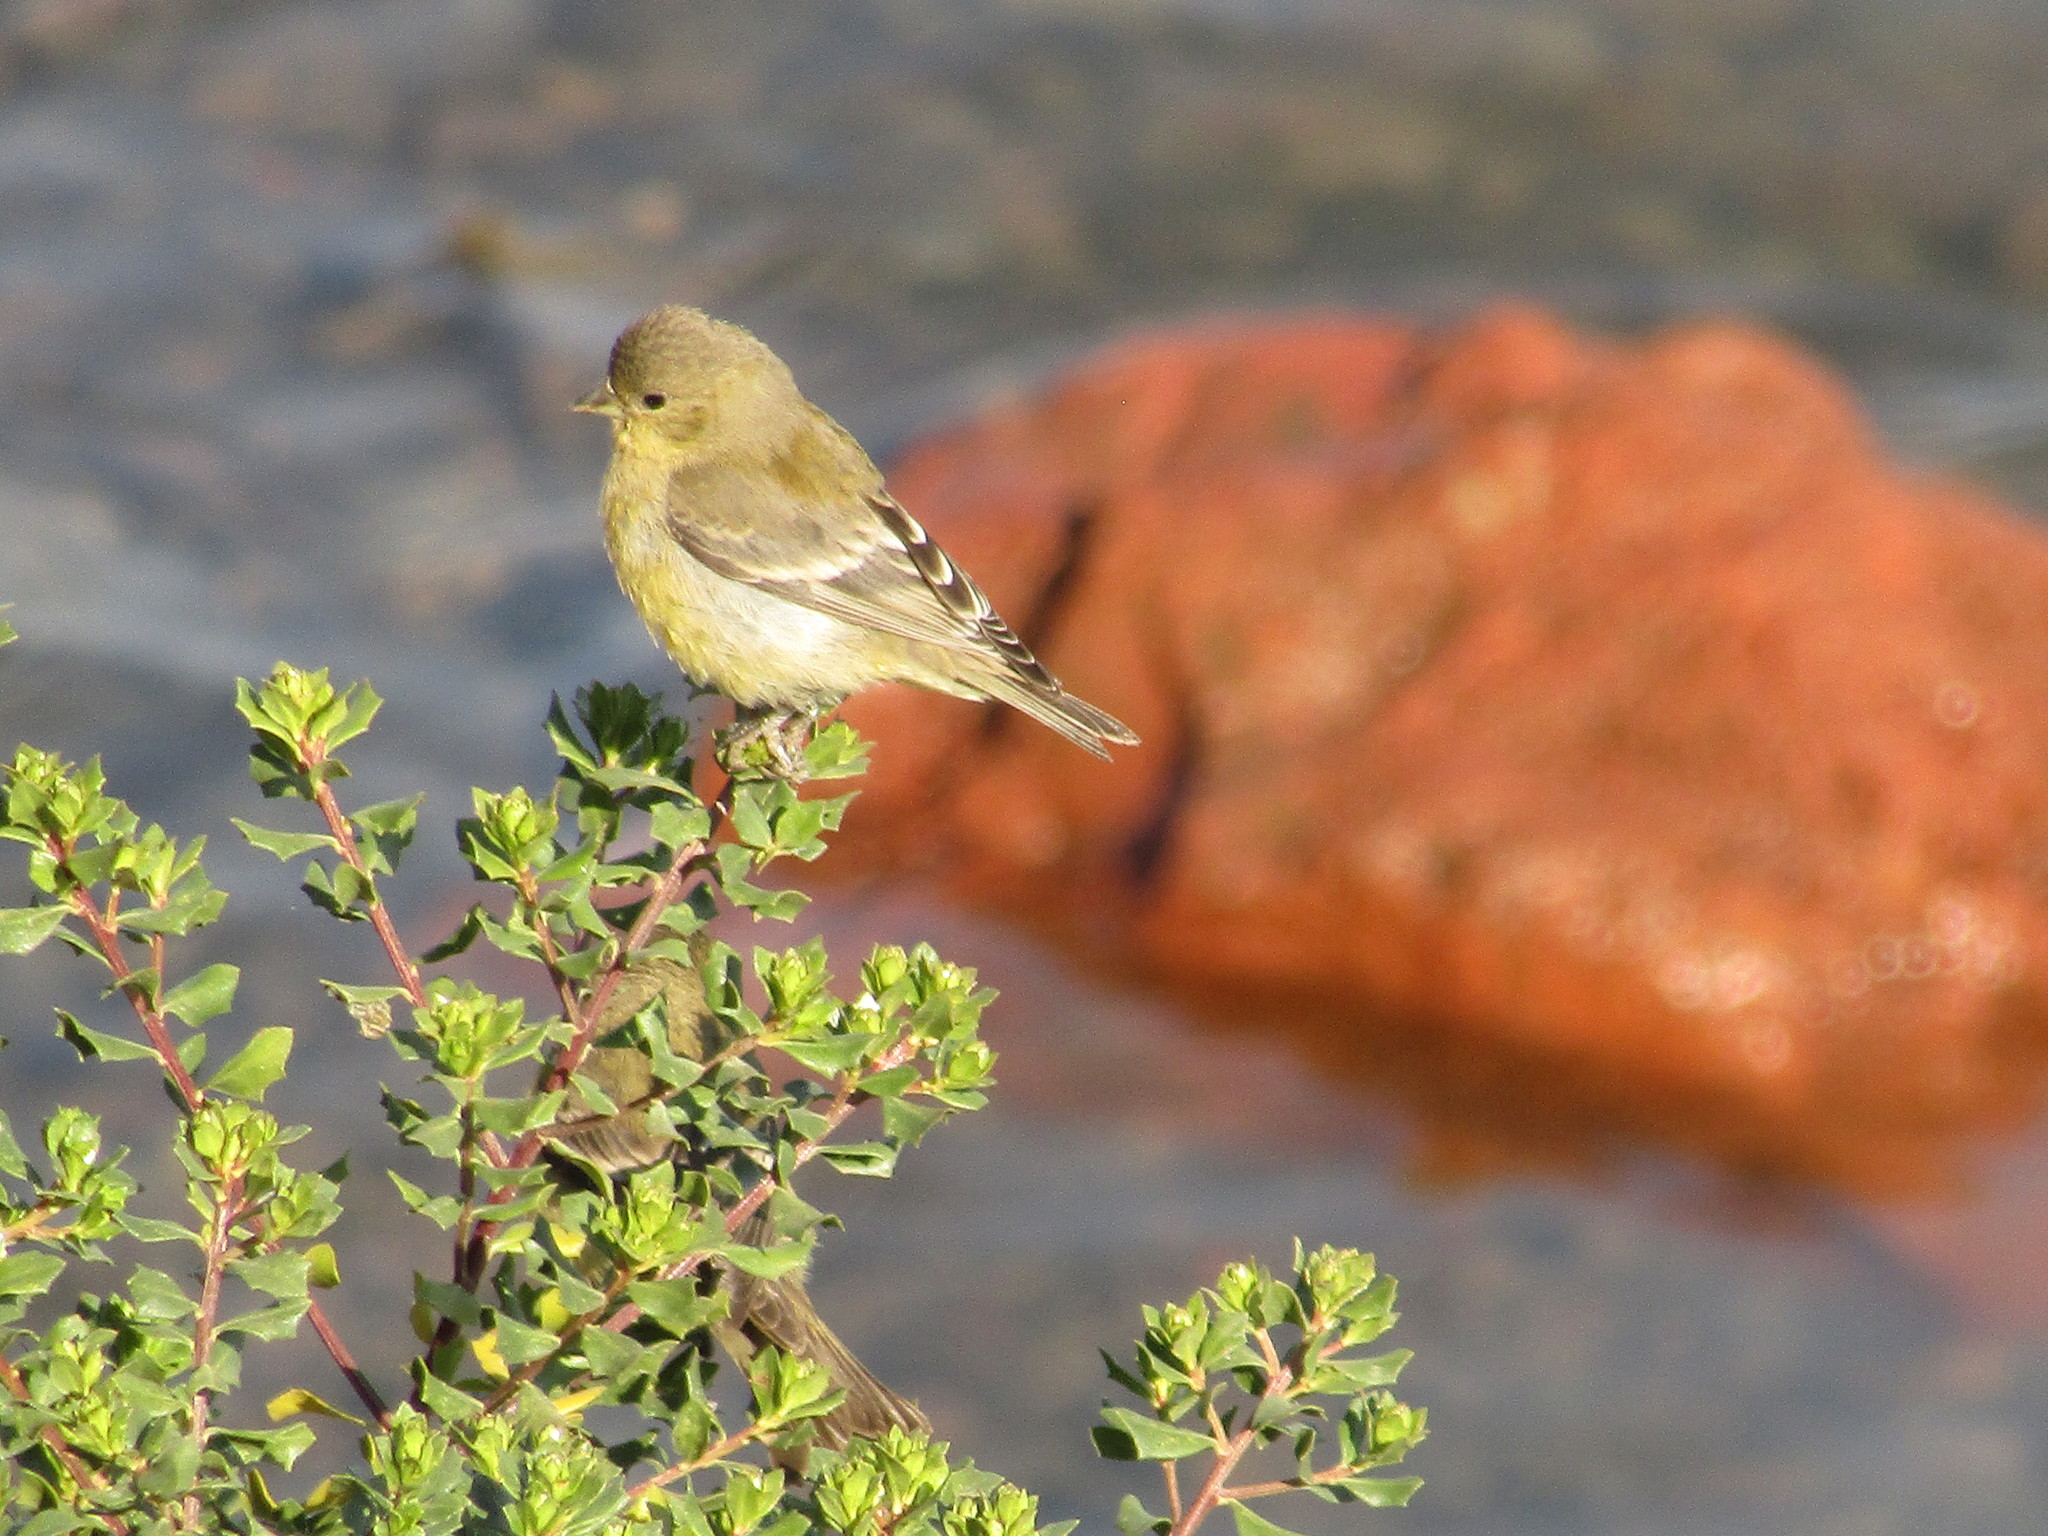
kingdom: Animalia
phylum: Chordata
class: Aves
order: Passeriformes
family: Fringillidae
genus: Spinus
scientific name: Spinus psaltria
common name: Lesser goldfinch
